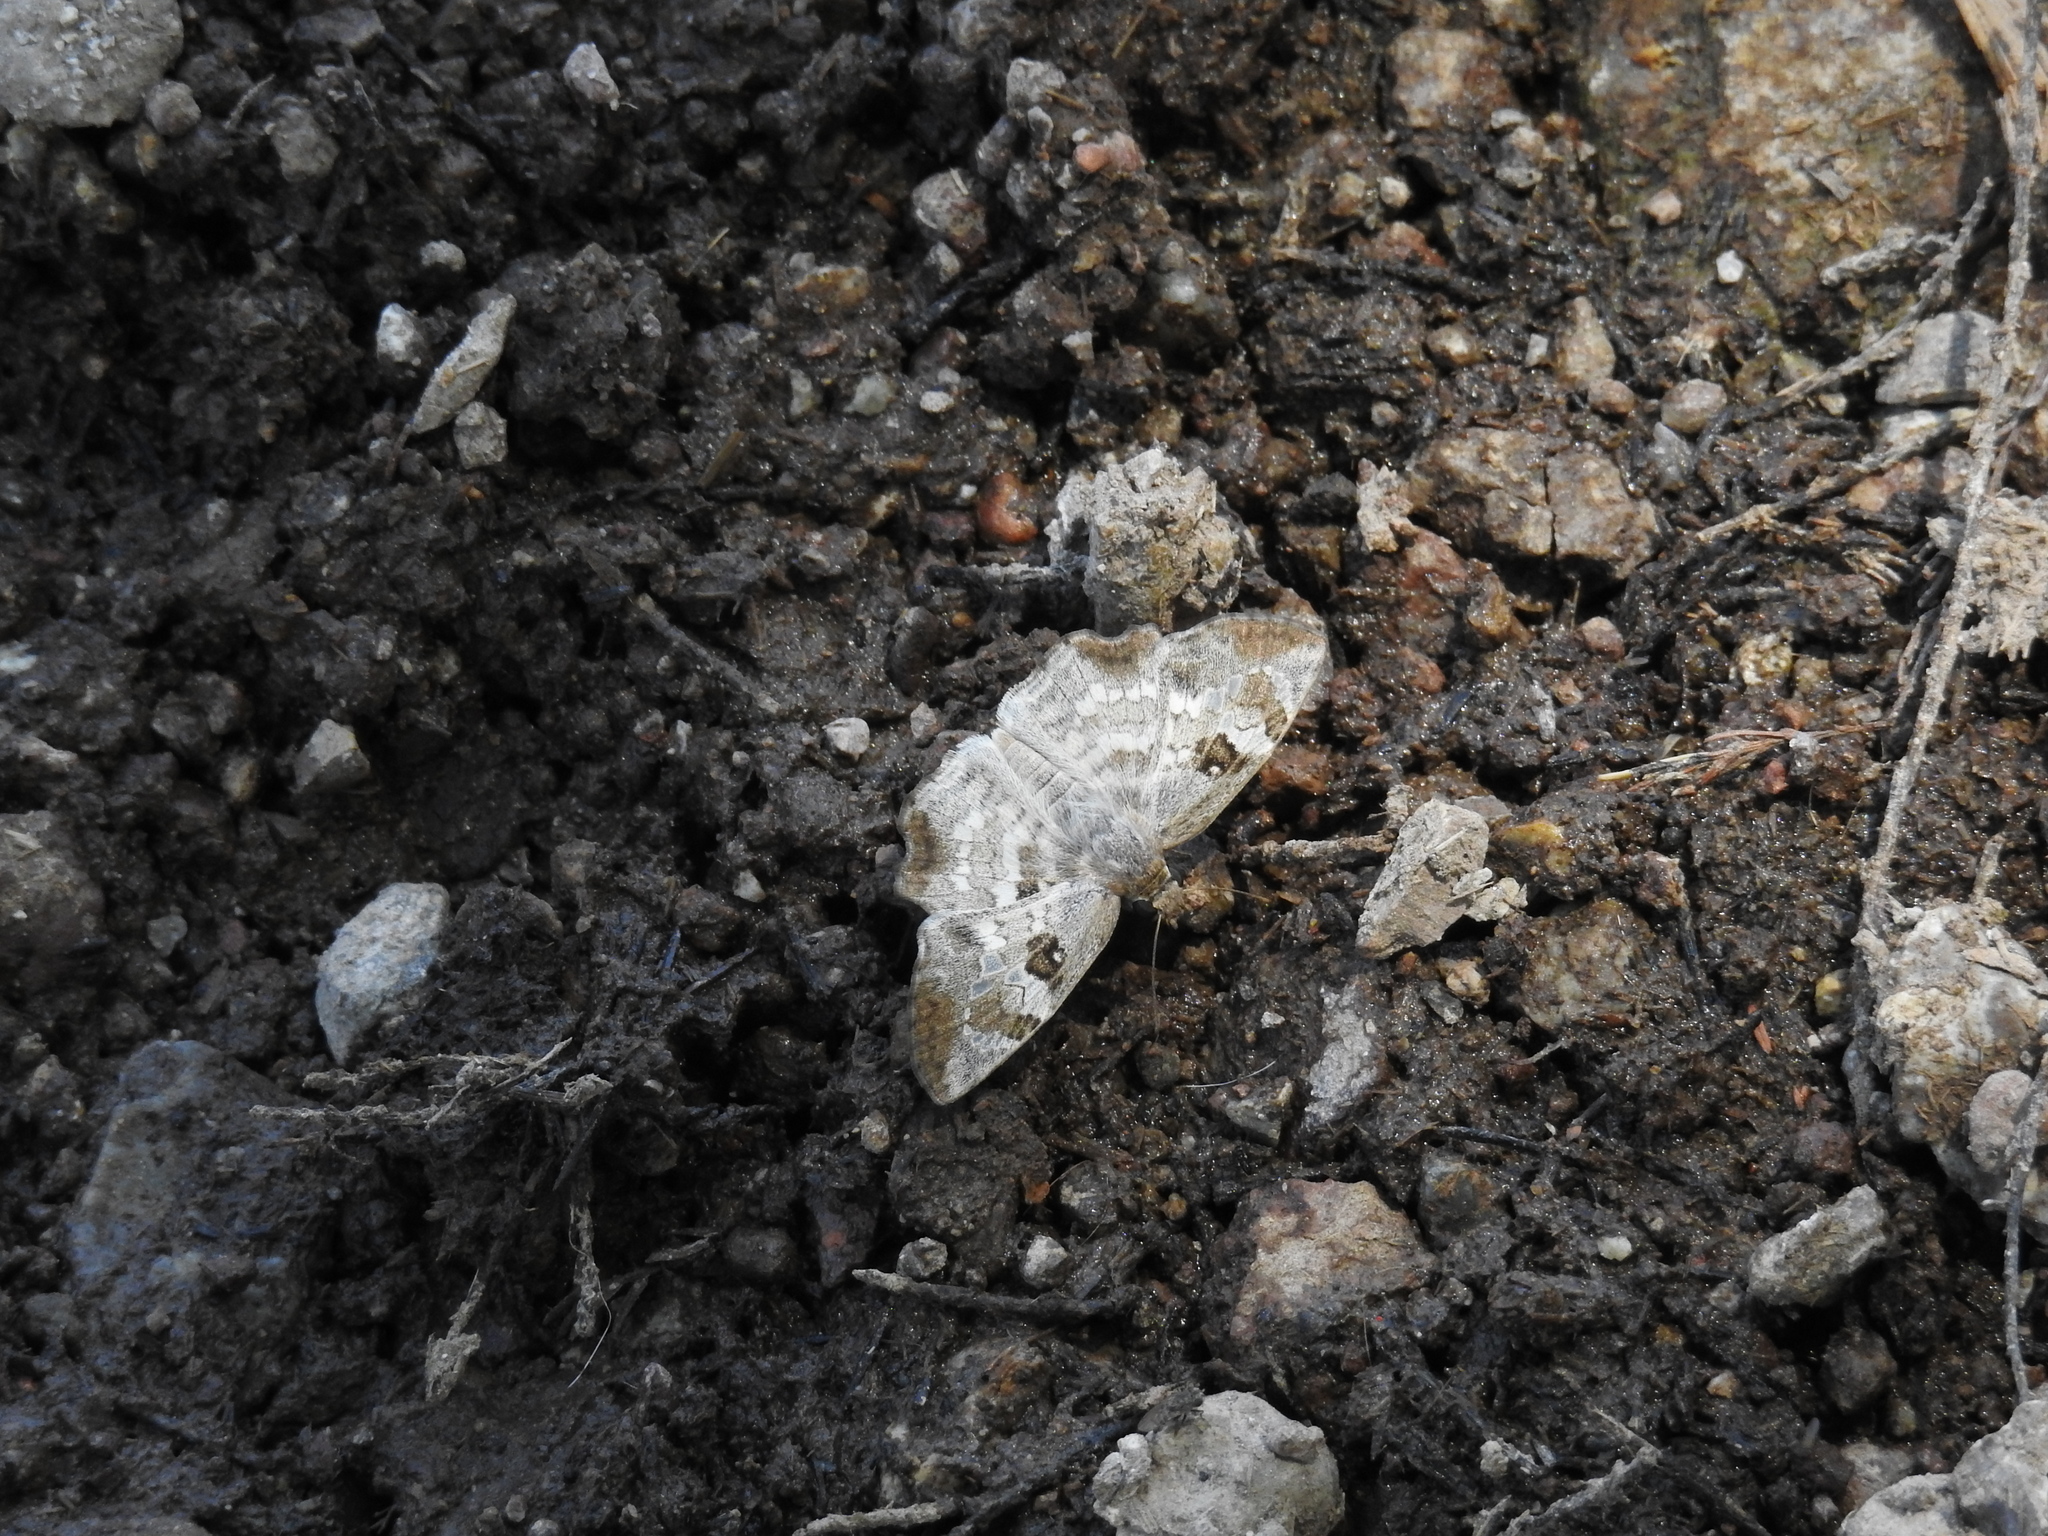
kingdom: Animalia
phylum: Arthropoda
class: Insecta
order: Lepidoptera
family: Hesperiidae
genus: Antigonus
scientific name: Antigonus emorsa
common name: White spurwing
